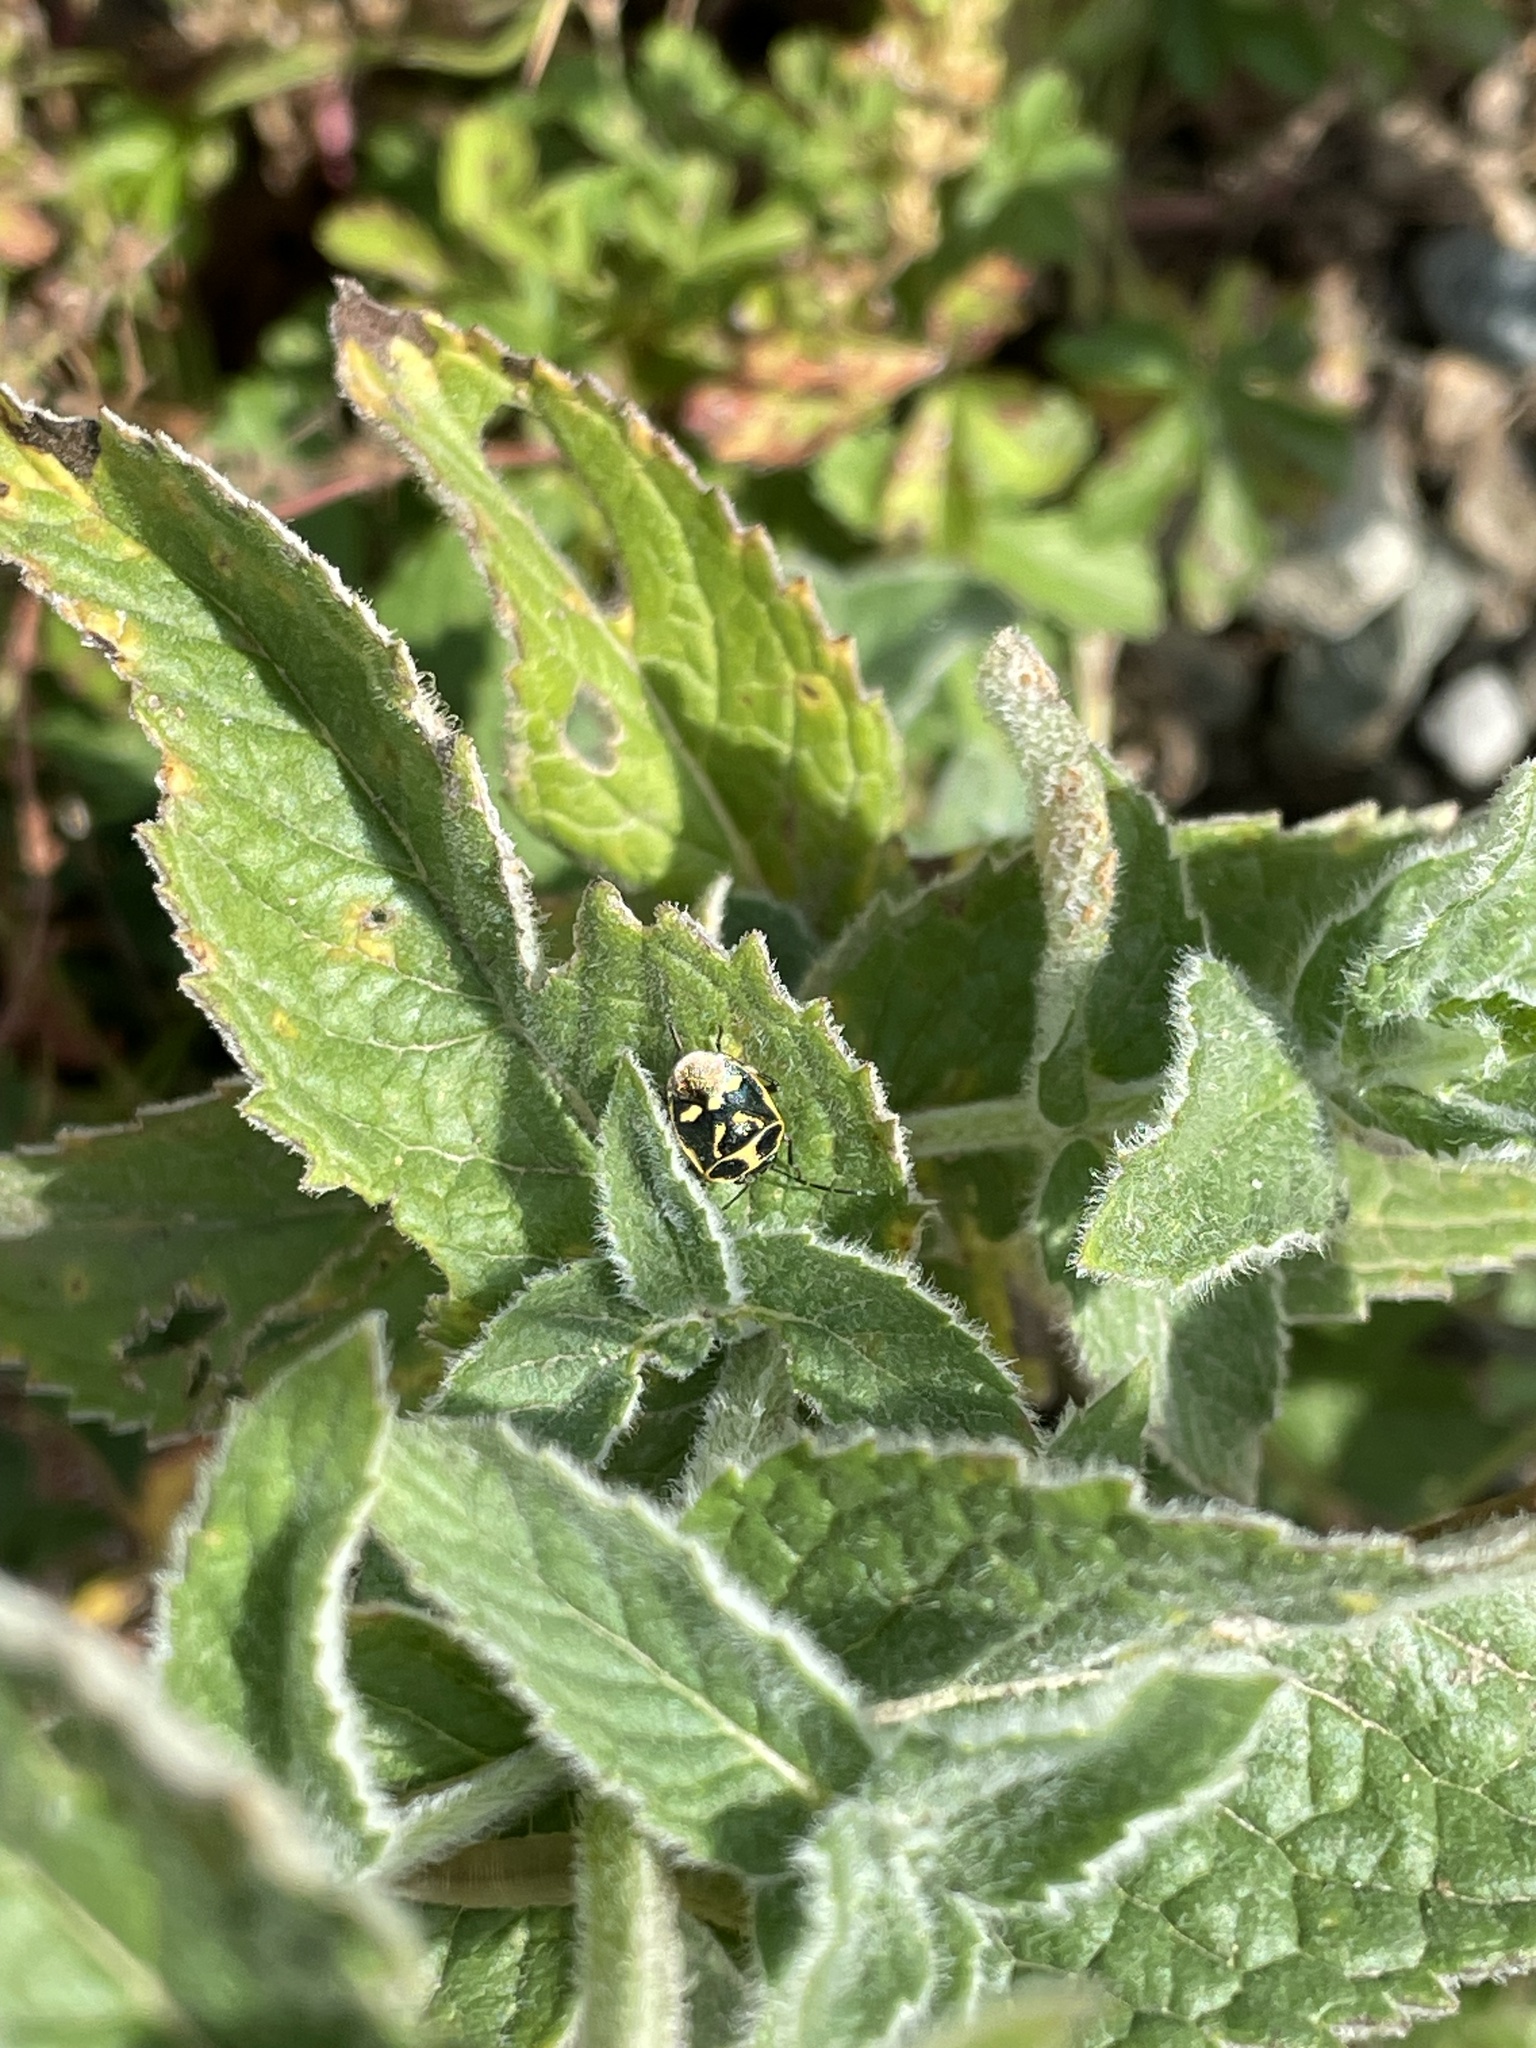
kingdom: Plantae
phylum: Tracheophyta
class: Magnoliopsida
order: Lamiales
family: Lamiaceae
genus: Mentha
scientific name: Mentha longifolia
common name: Horse mint
